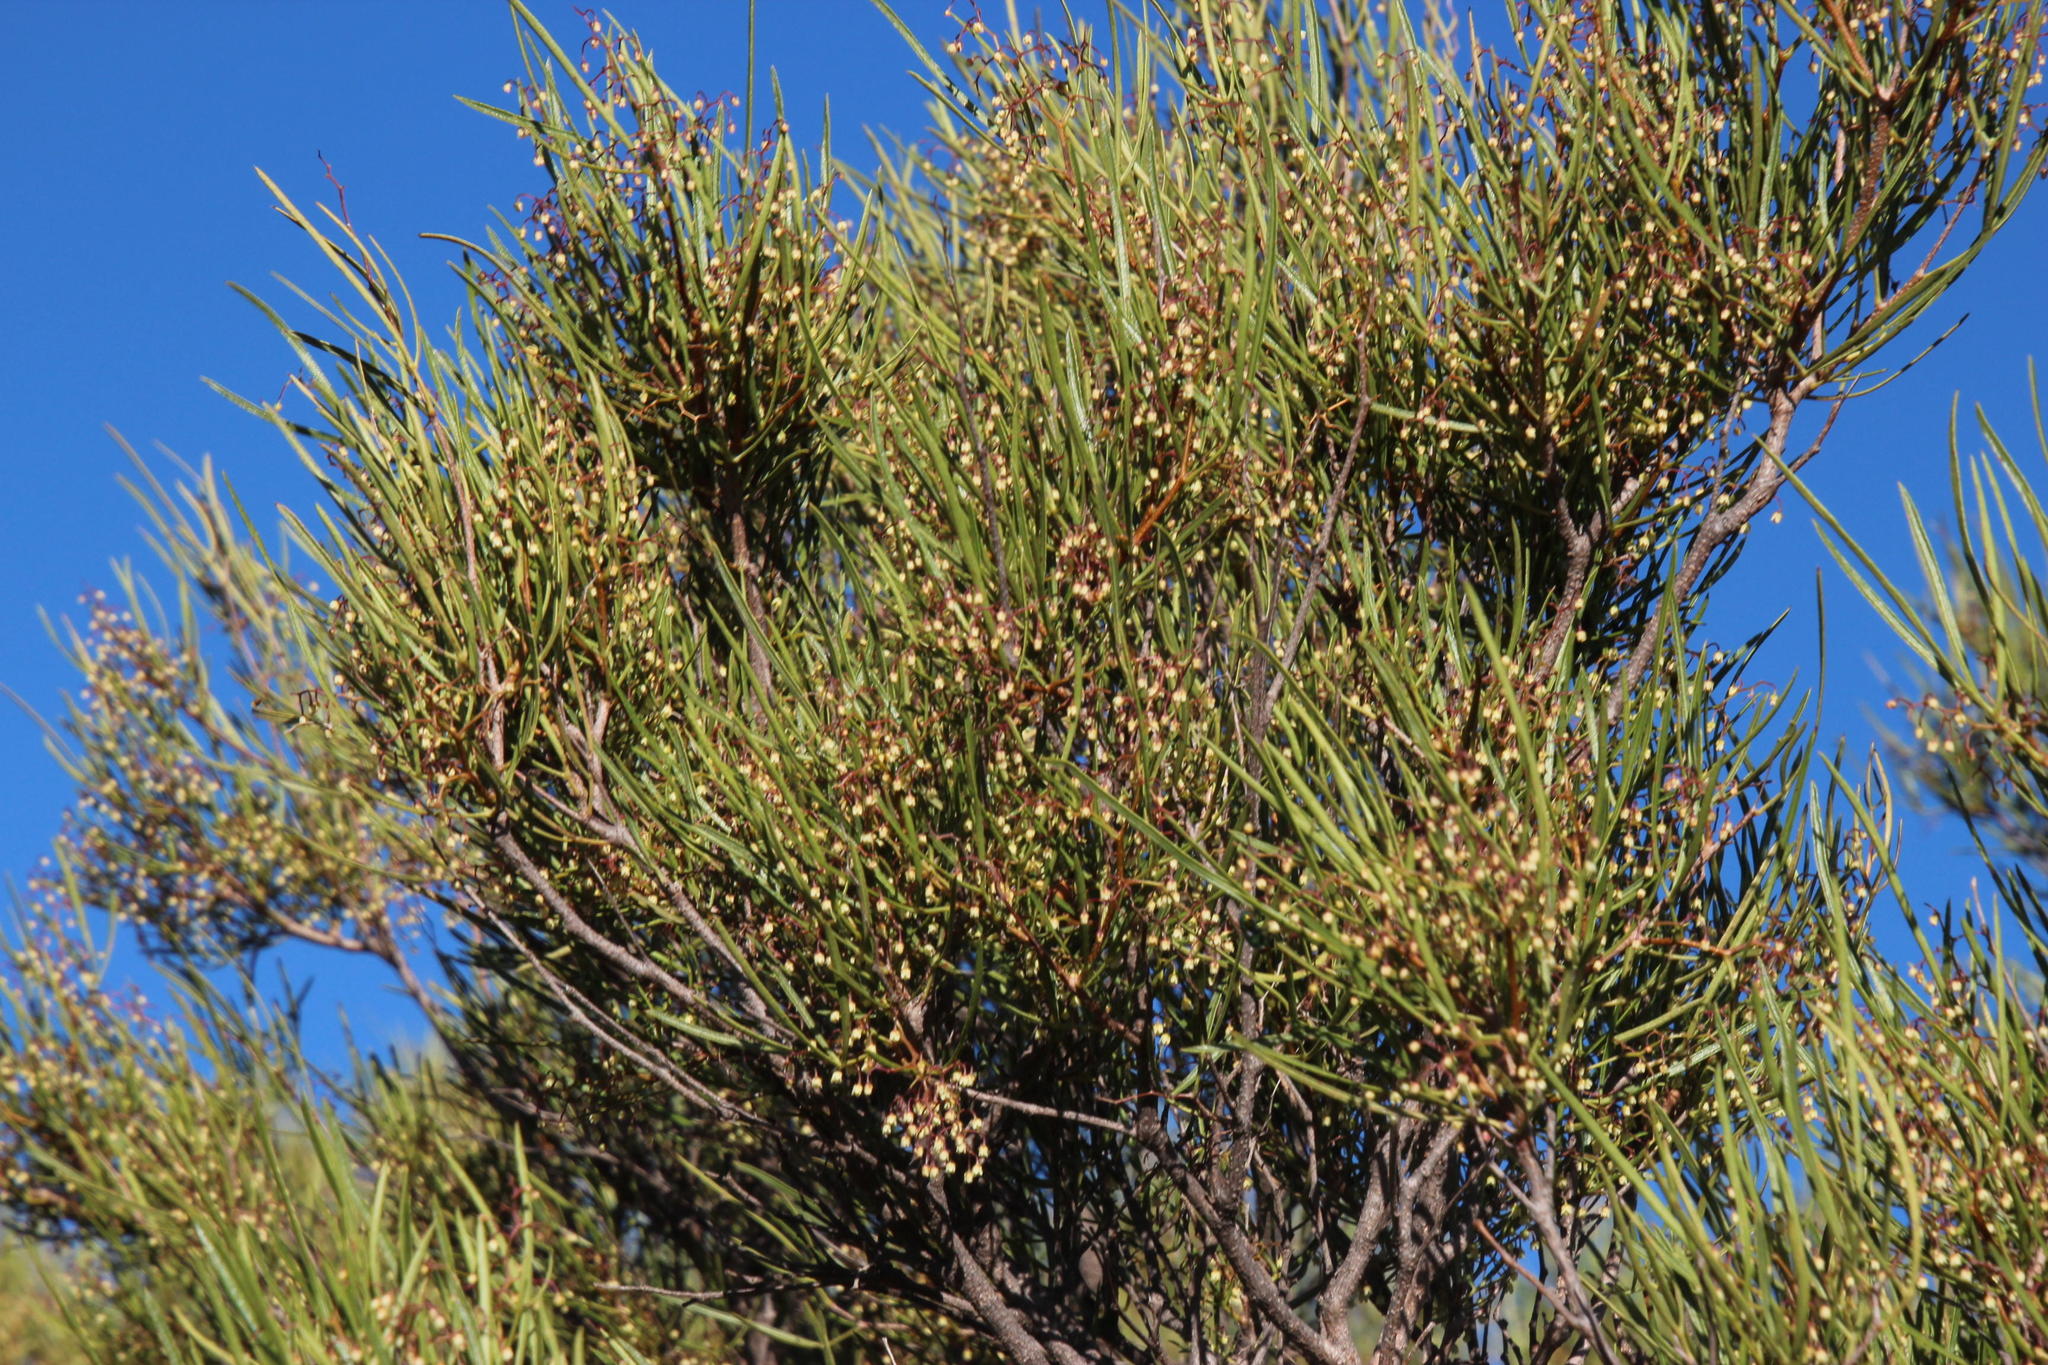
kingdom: Plantae
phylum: Tracheophyta
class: Magnoliopsida
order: Sapindales
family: Anacardiaceae
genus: Searsia
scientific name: Searsia dregeana
